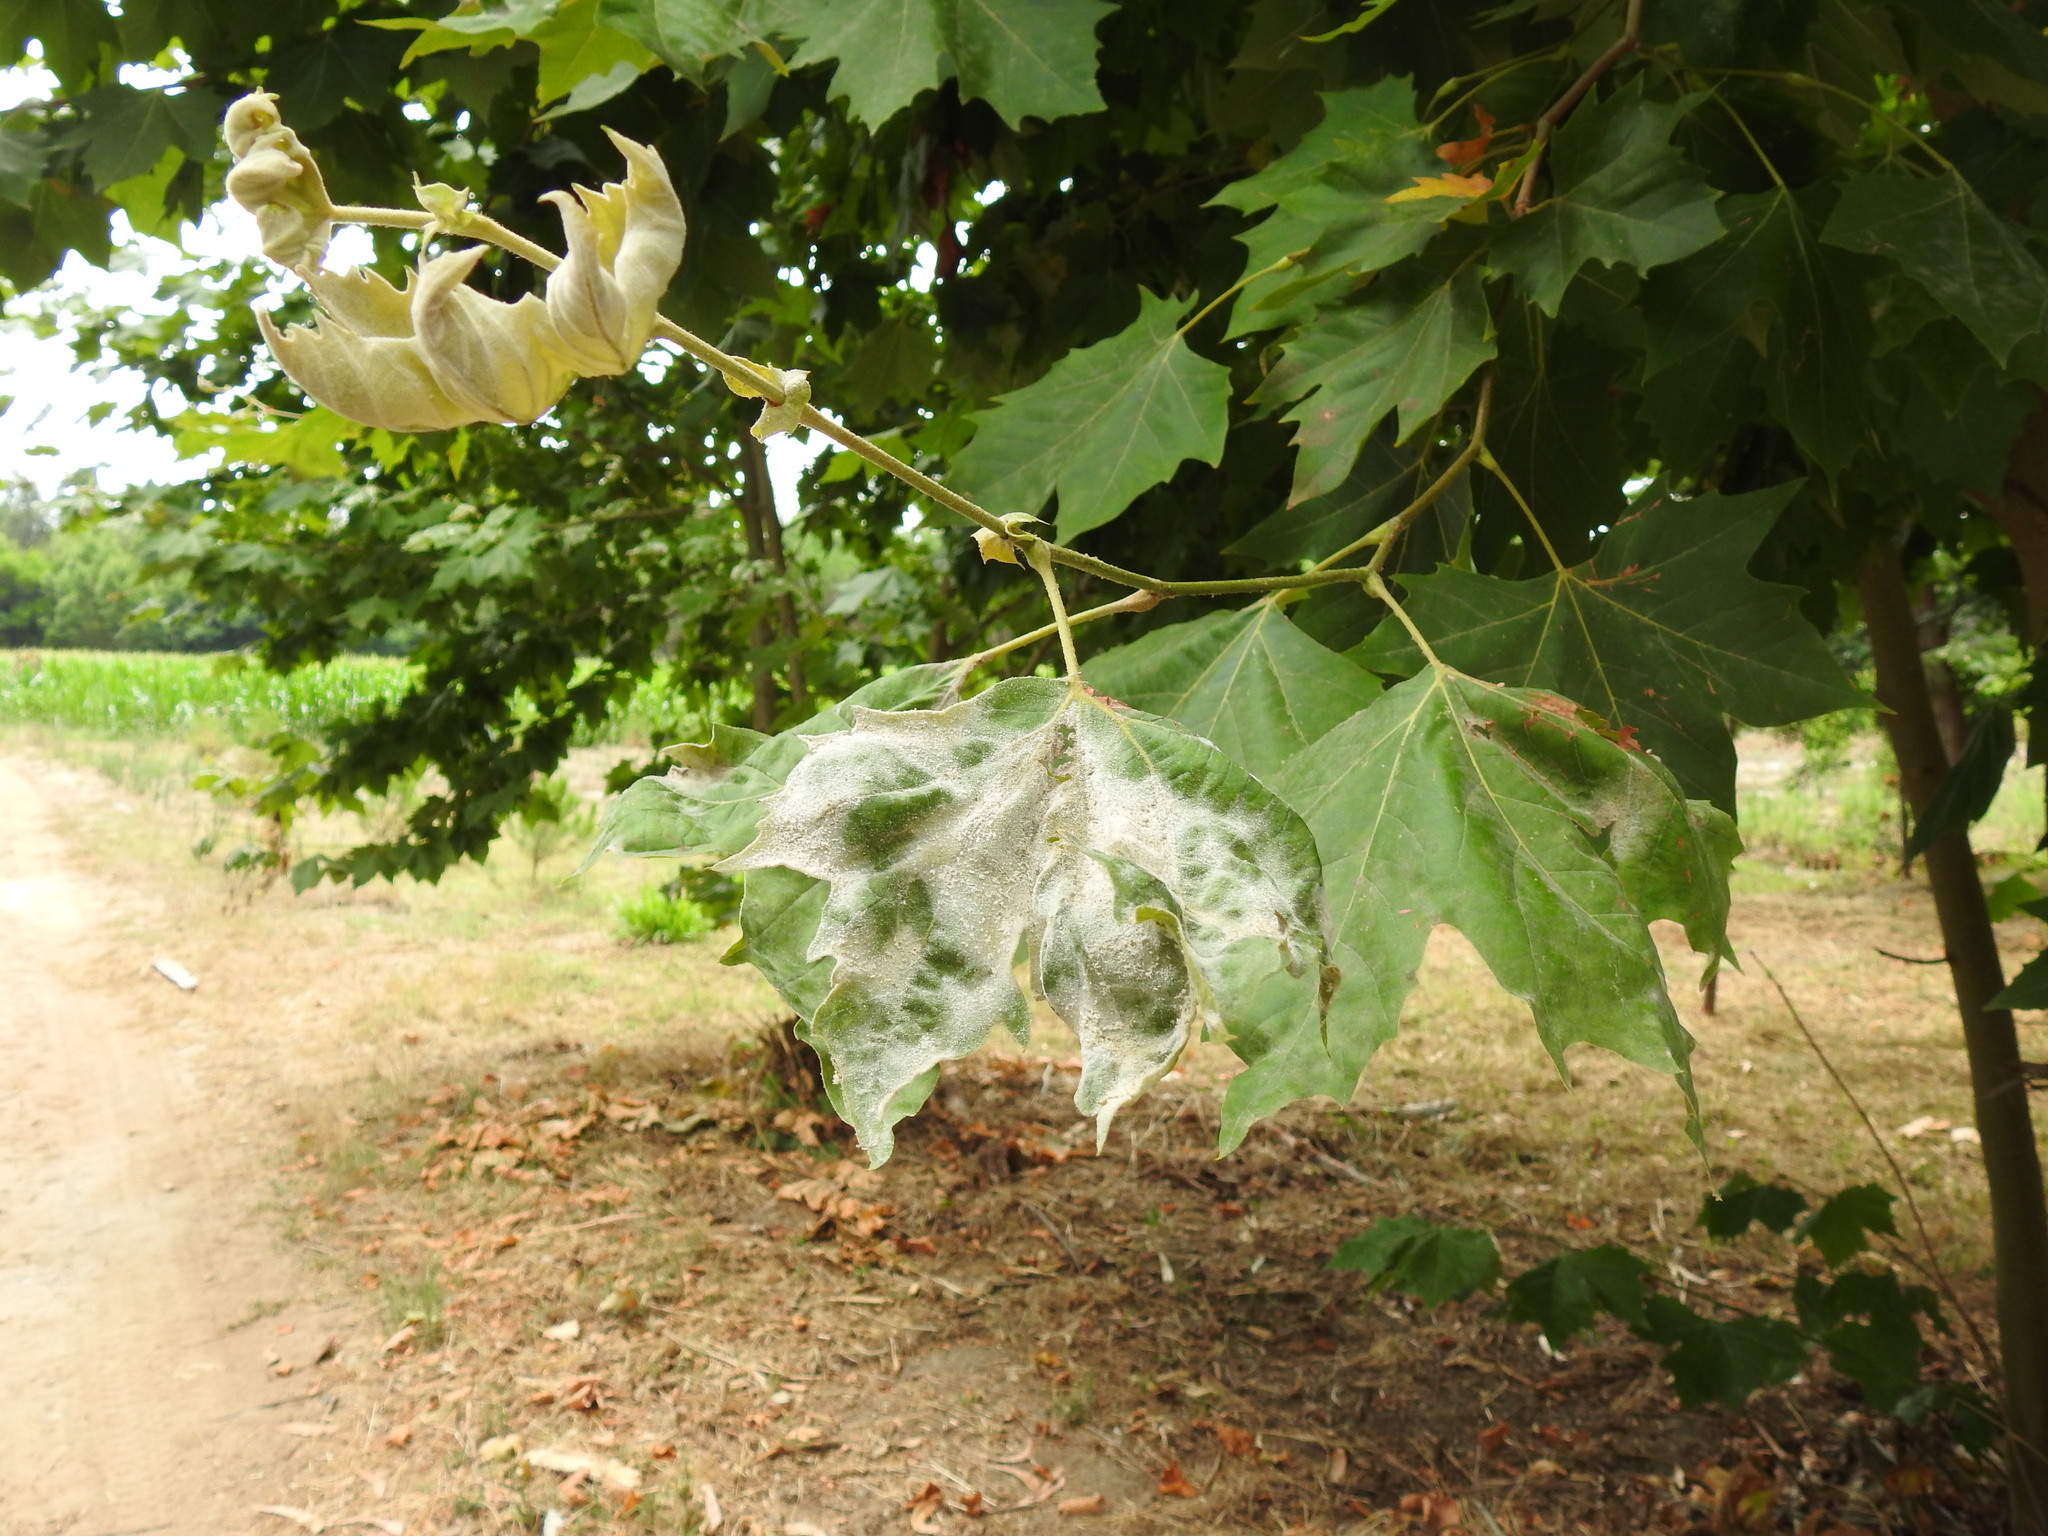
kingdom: Fungi
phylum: Ascomycota
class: Leotiomycetes
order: Helotiales
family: Erysiphaceae
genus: Erysiphe
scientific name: Erysiphe platani
